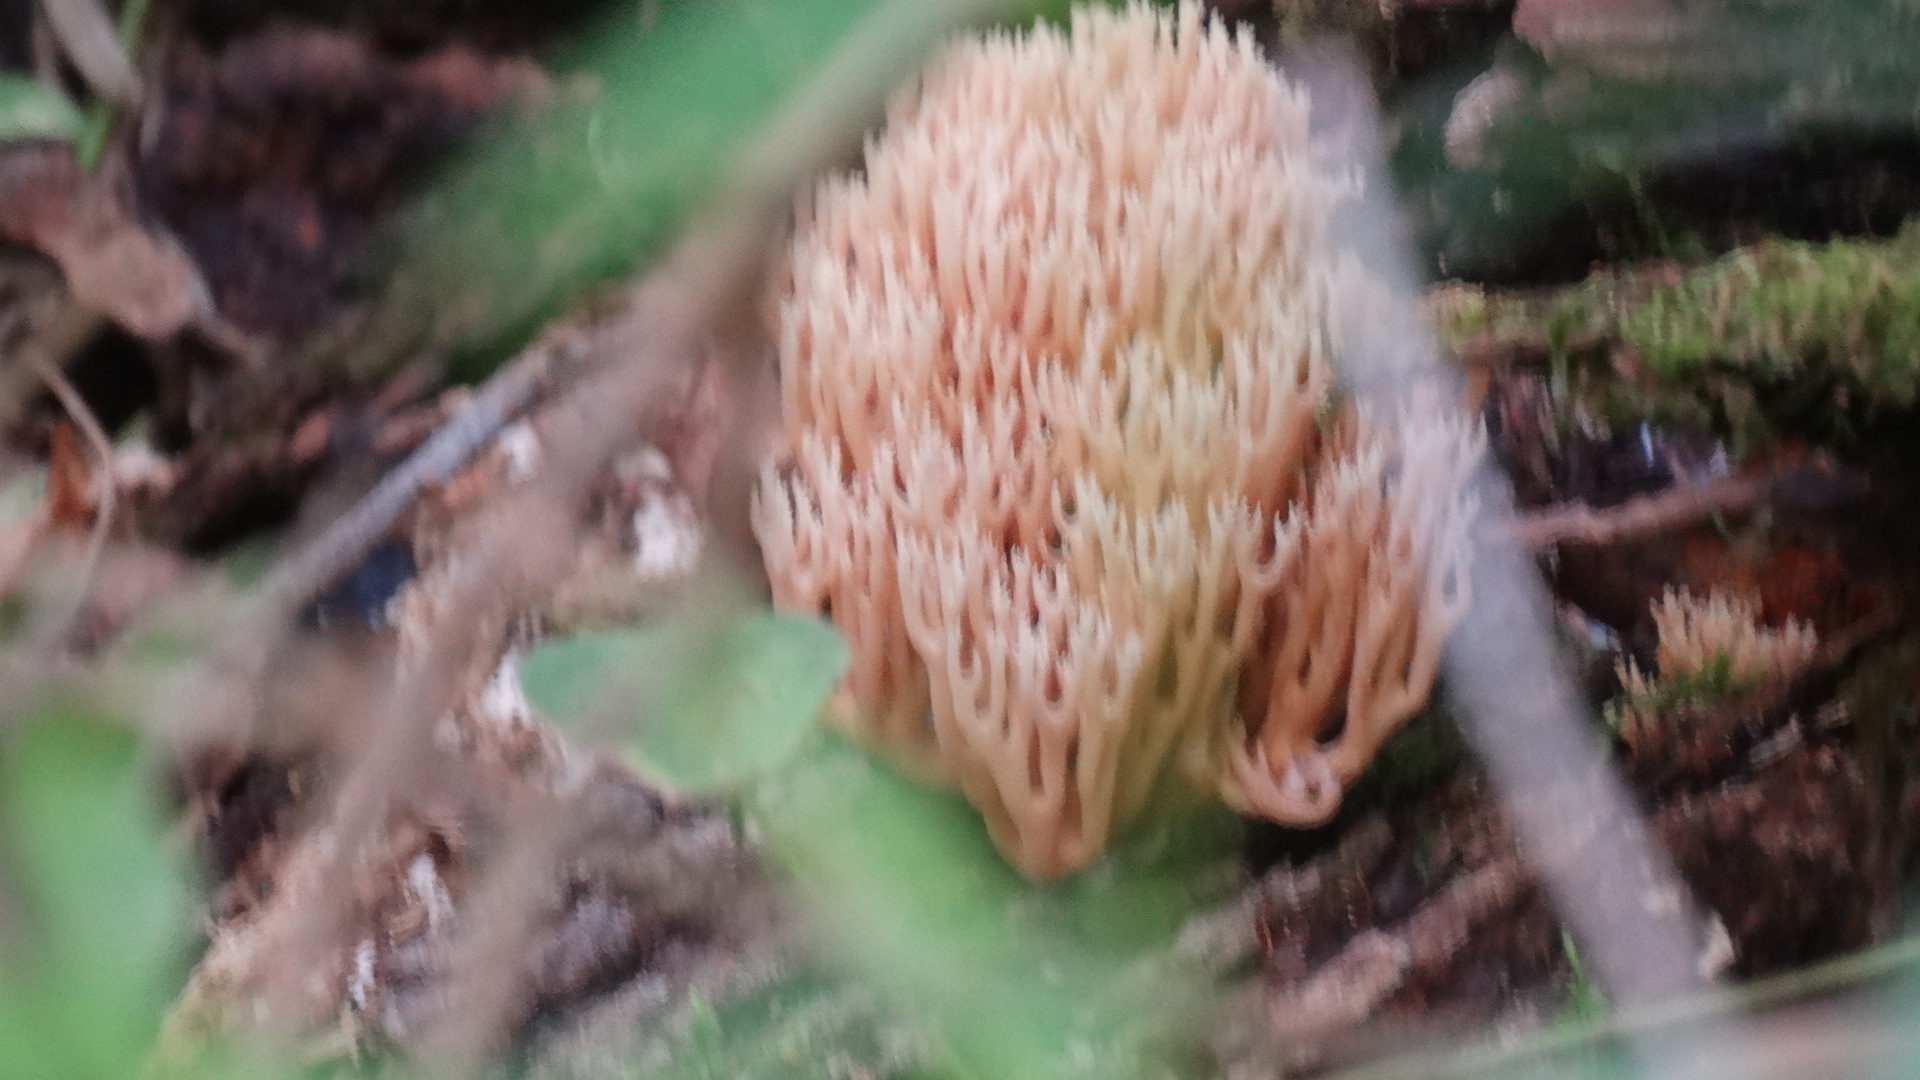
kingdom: Fungi
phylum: Basidiomycota
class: Agaricomycetes
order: Russulales
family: Auriscalpiaceae
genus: Artomyces
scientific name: Artomyces pyxidatus
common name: Crown-tipped coral fungus
